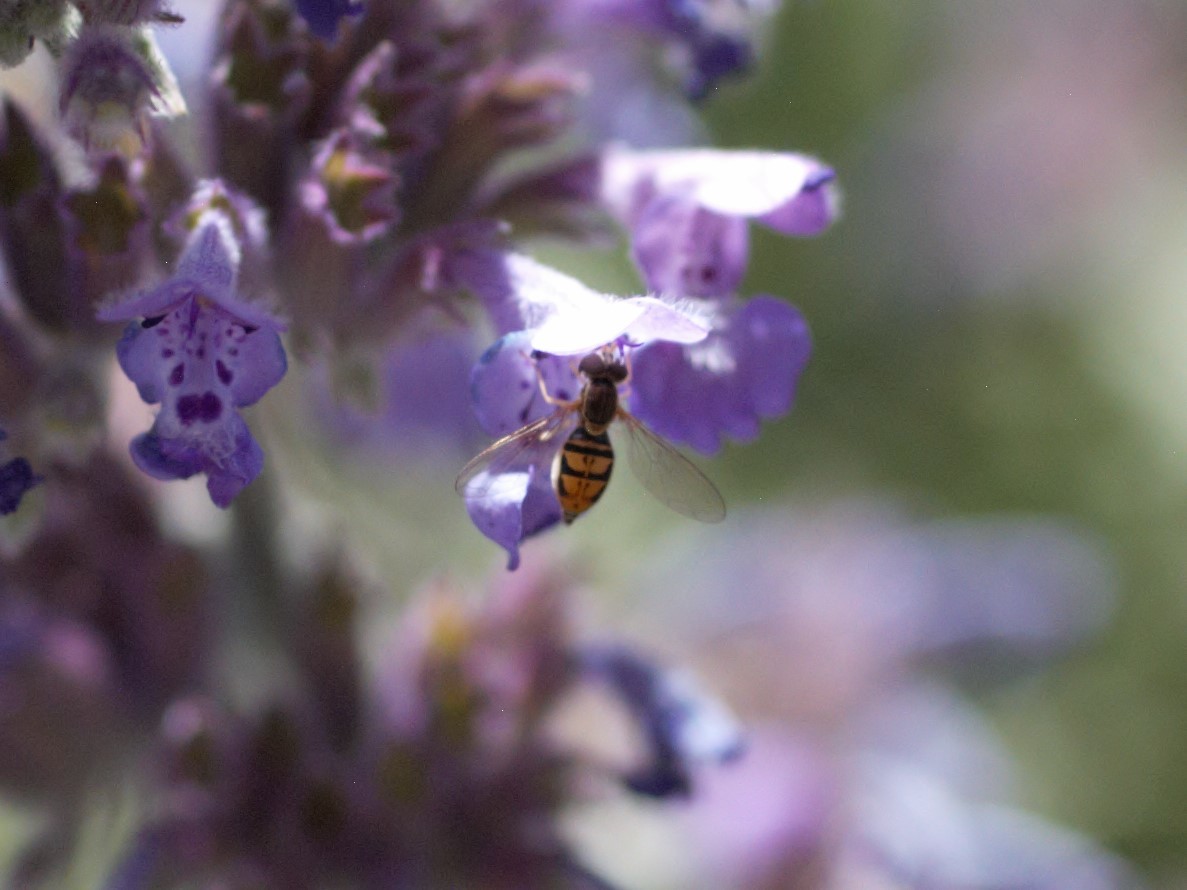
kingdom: Animalia
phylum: Arthropoda
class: Insecta
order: Diptera
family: Syrphidae
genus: Toxomerus
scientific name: Toxomerus marginatus
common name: Syrphid fly
